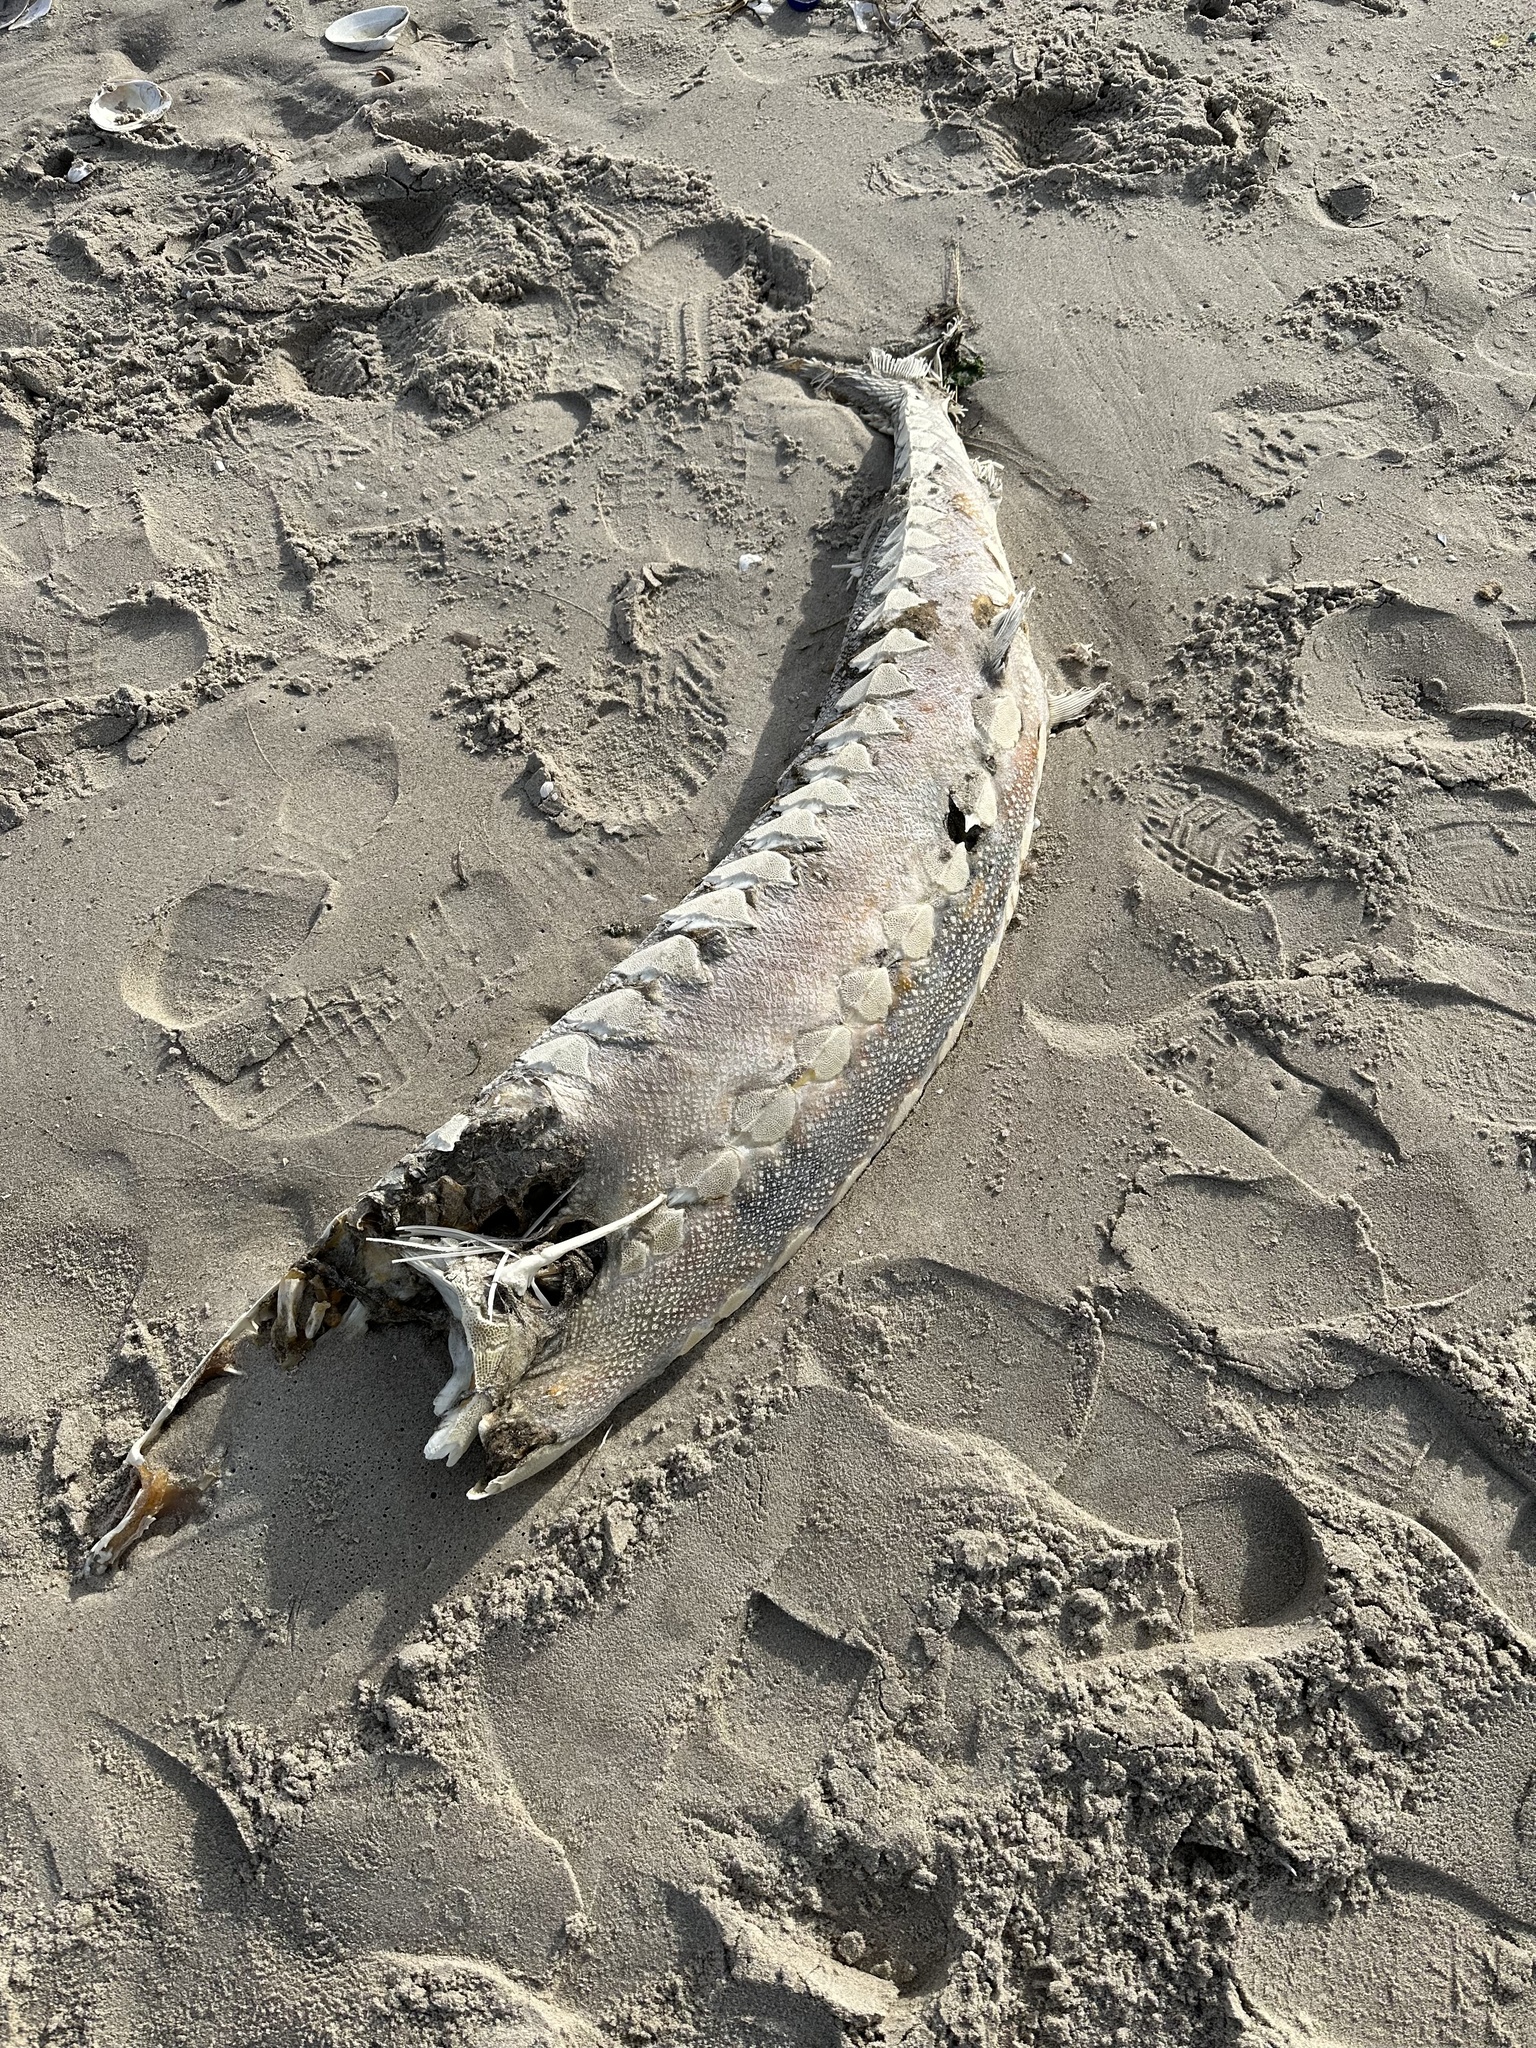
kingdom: Animalia
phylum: Chordata
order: Acipenseriformes
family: Acipenseridae
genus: Acipenser
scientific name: Acipenser oxyrinchus
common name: Atlantic sturgeon
